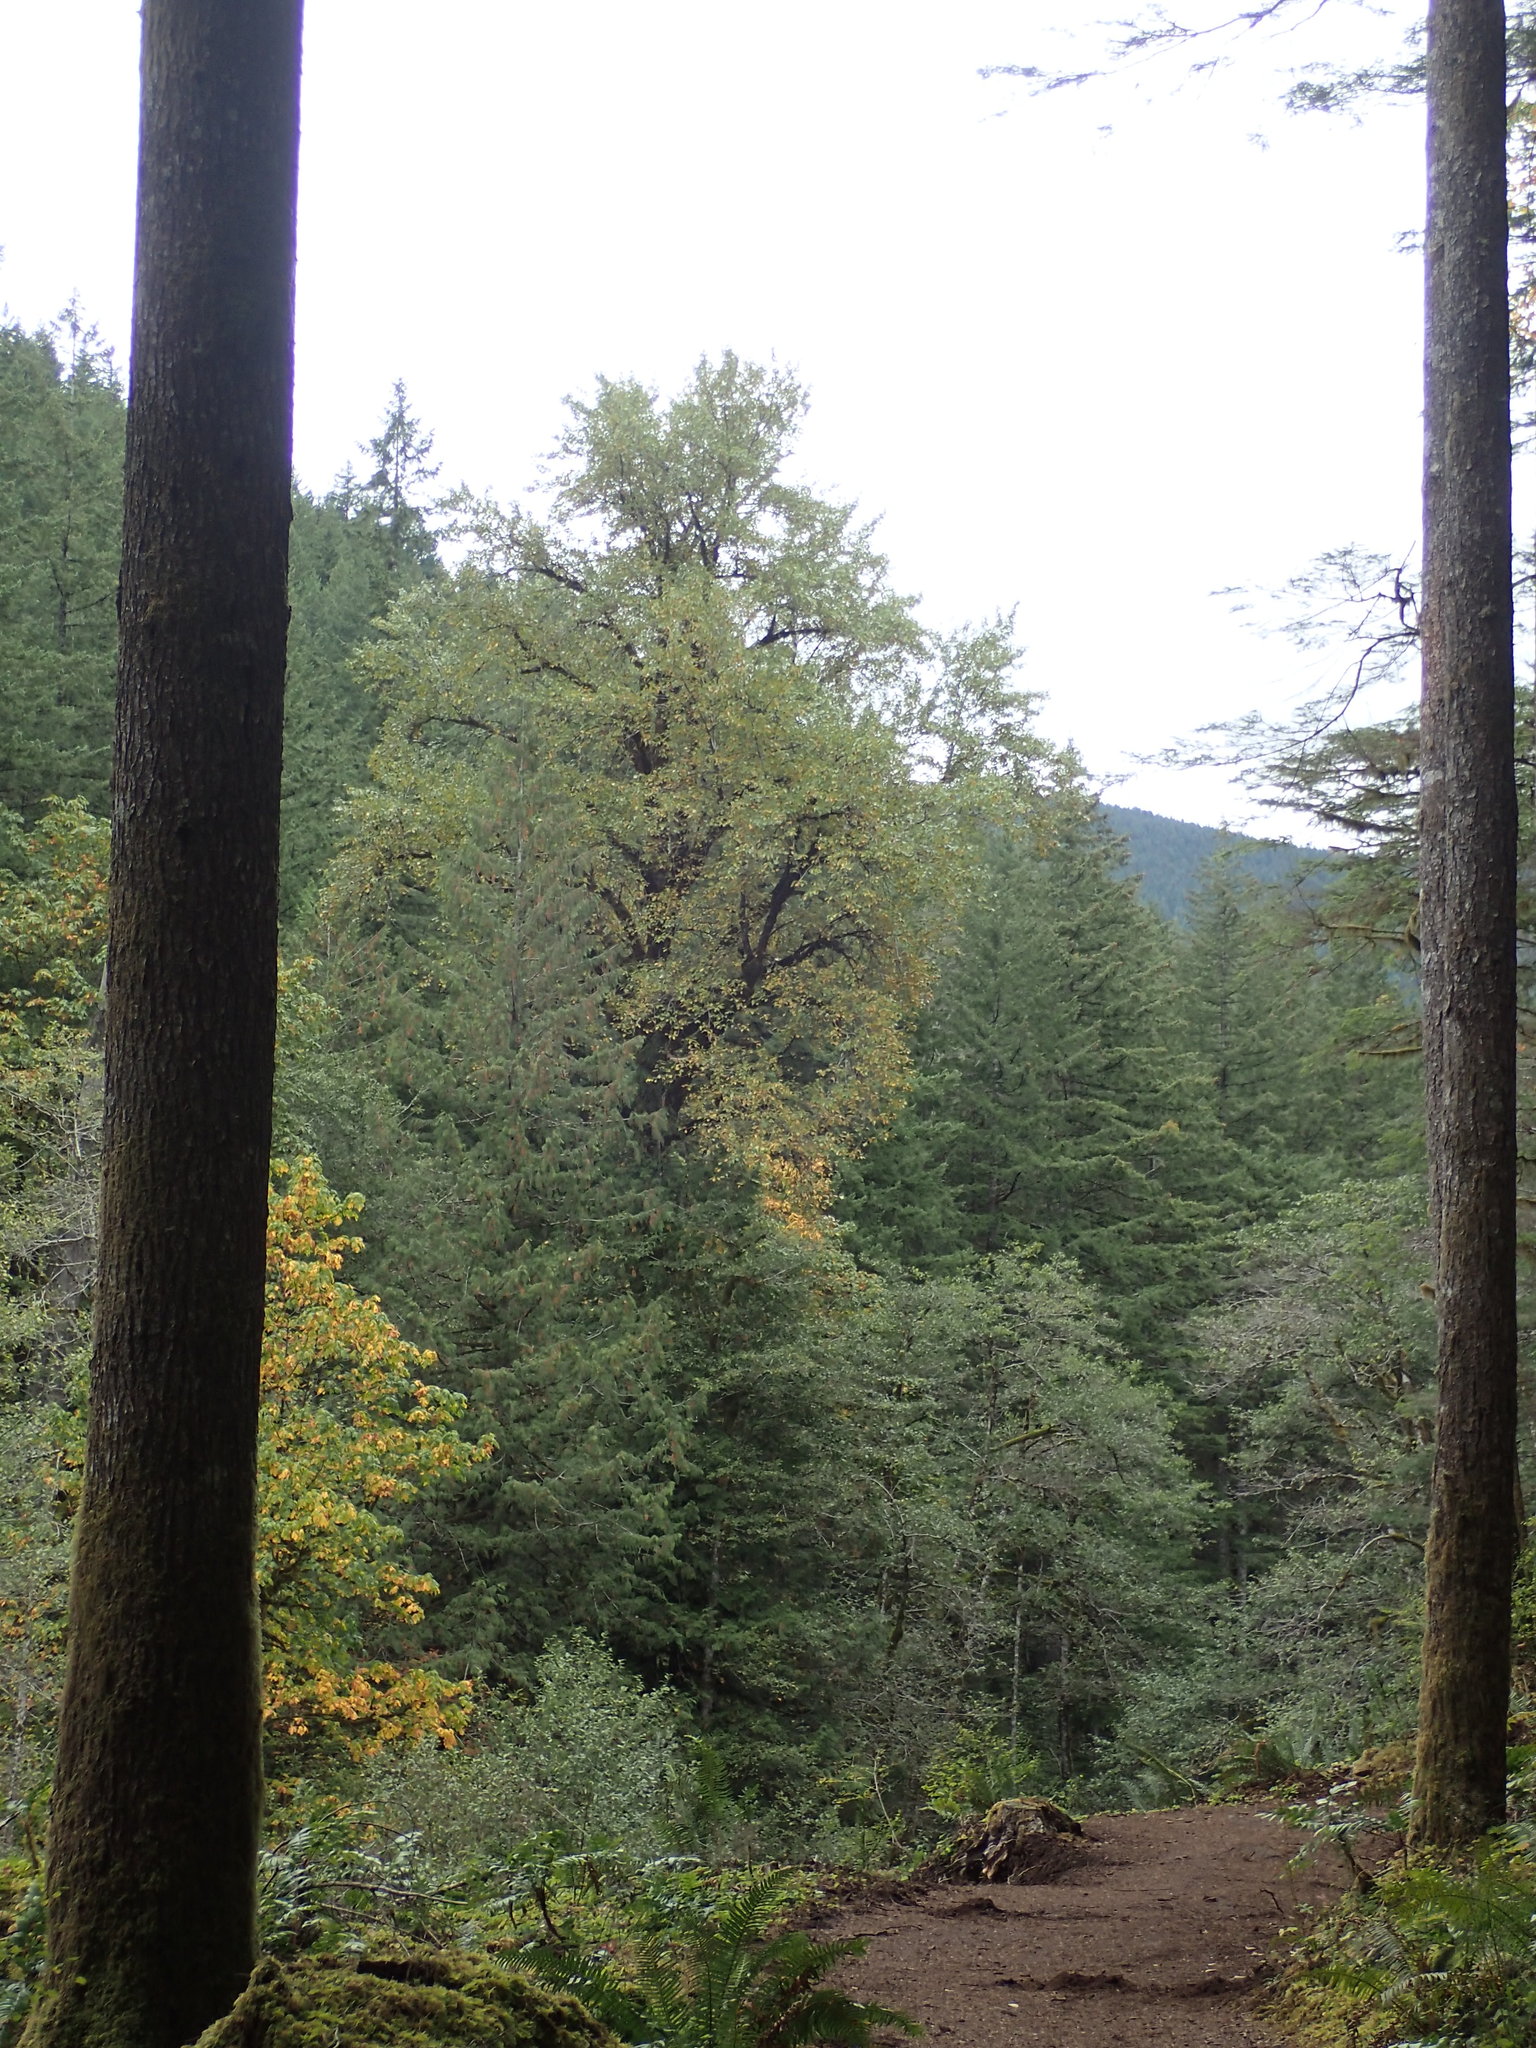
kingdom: Plantae
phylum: Tracheophyta
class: Magnoliopsida
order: Malpighiales
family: Salicaceae
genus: Populus
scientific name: Populus trichocarpa
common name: Black cottonwood
